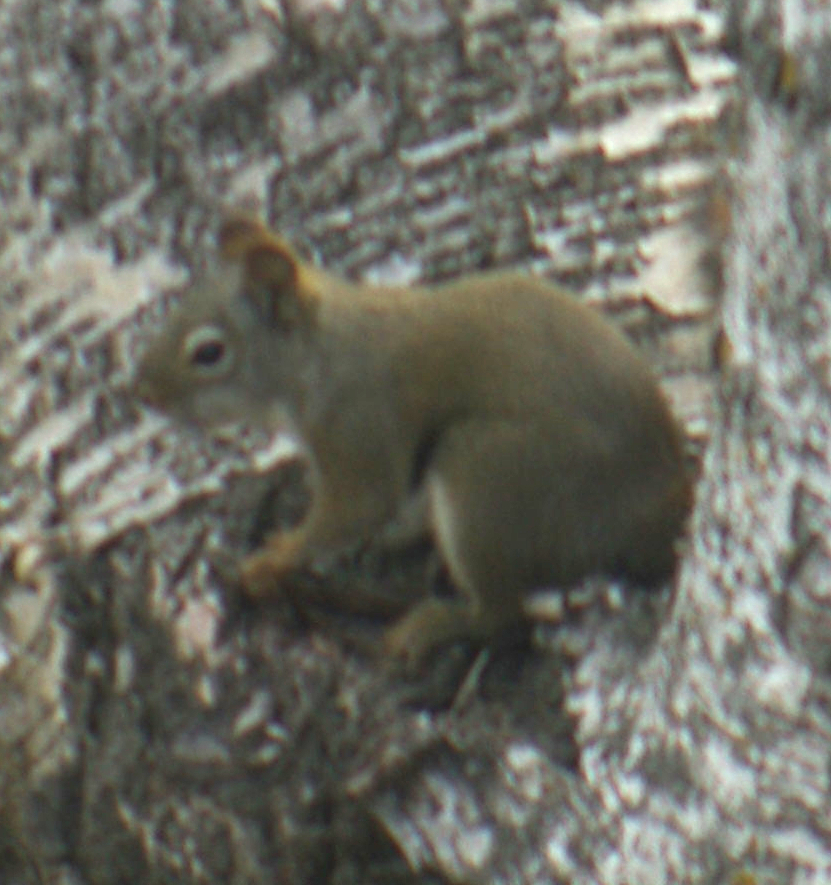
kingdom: Animalia
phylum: Chordata
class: Mammalia
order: Rodentia
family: Sciuridae
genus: Tamiasciurus
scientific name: Tamiasciurus hudsonicus
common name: Red squirrel
